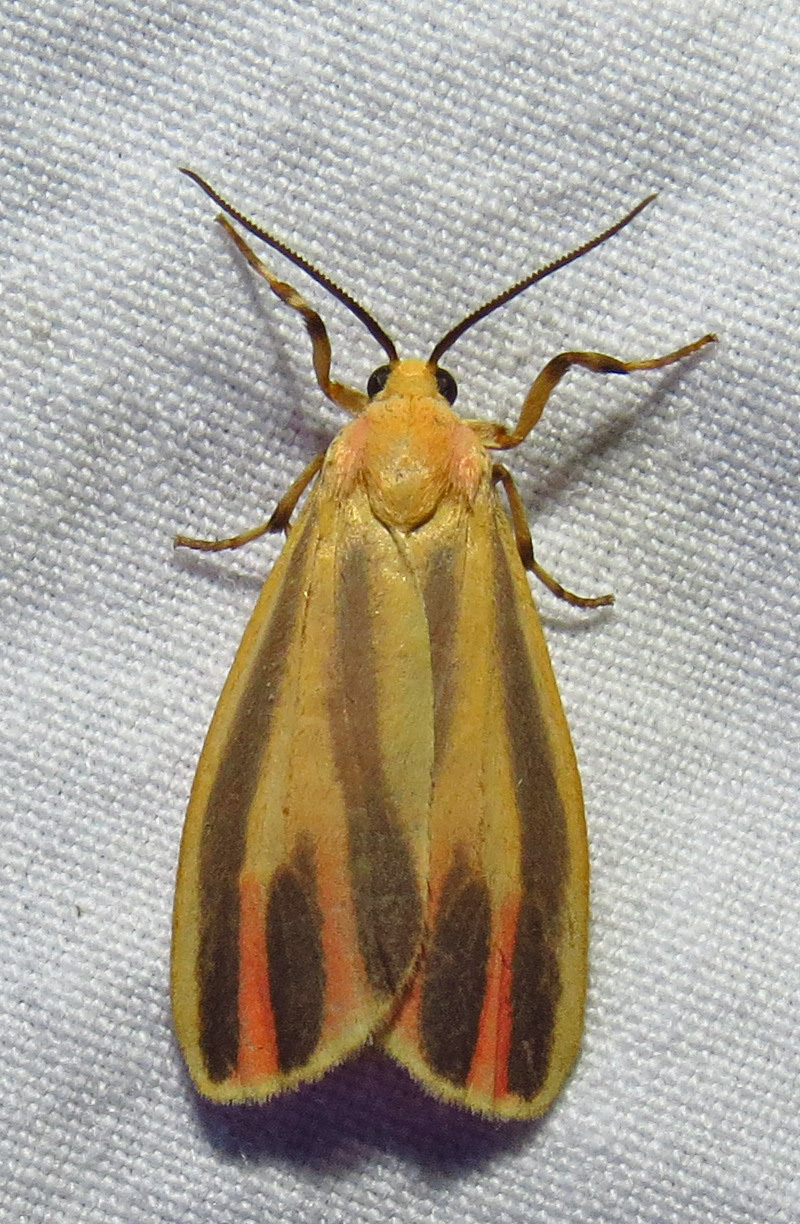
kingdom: Animalia
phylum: Arthropoda
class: Insecta
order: Lepidoptera
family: Erebidae
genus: Hypoprepia
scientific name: Hypoprepia fucosa
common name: Painted lichen moth
